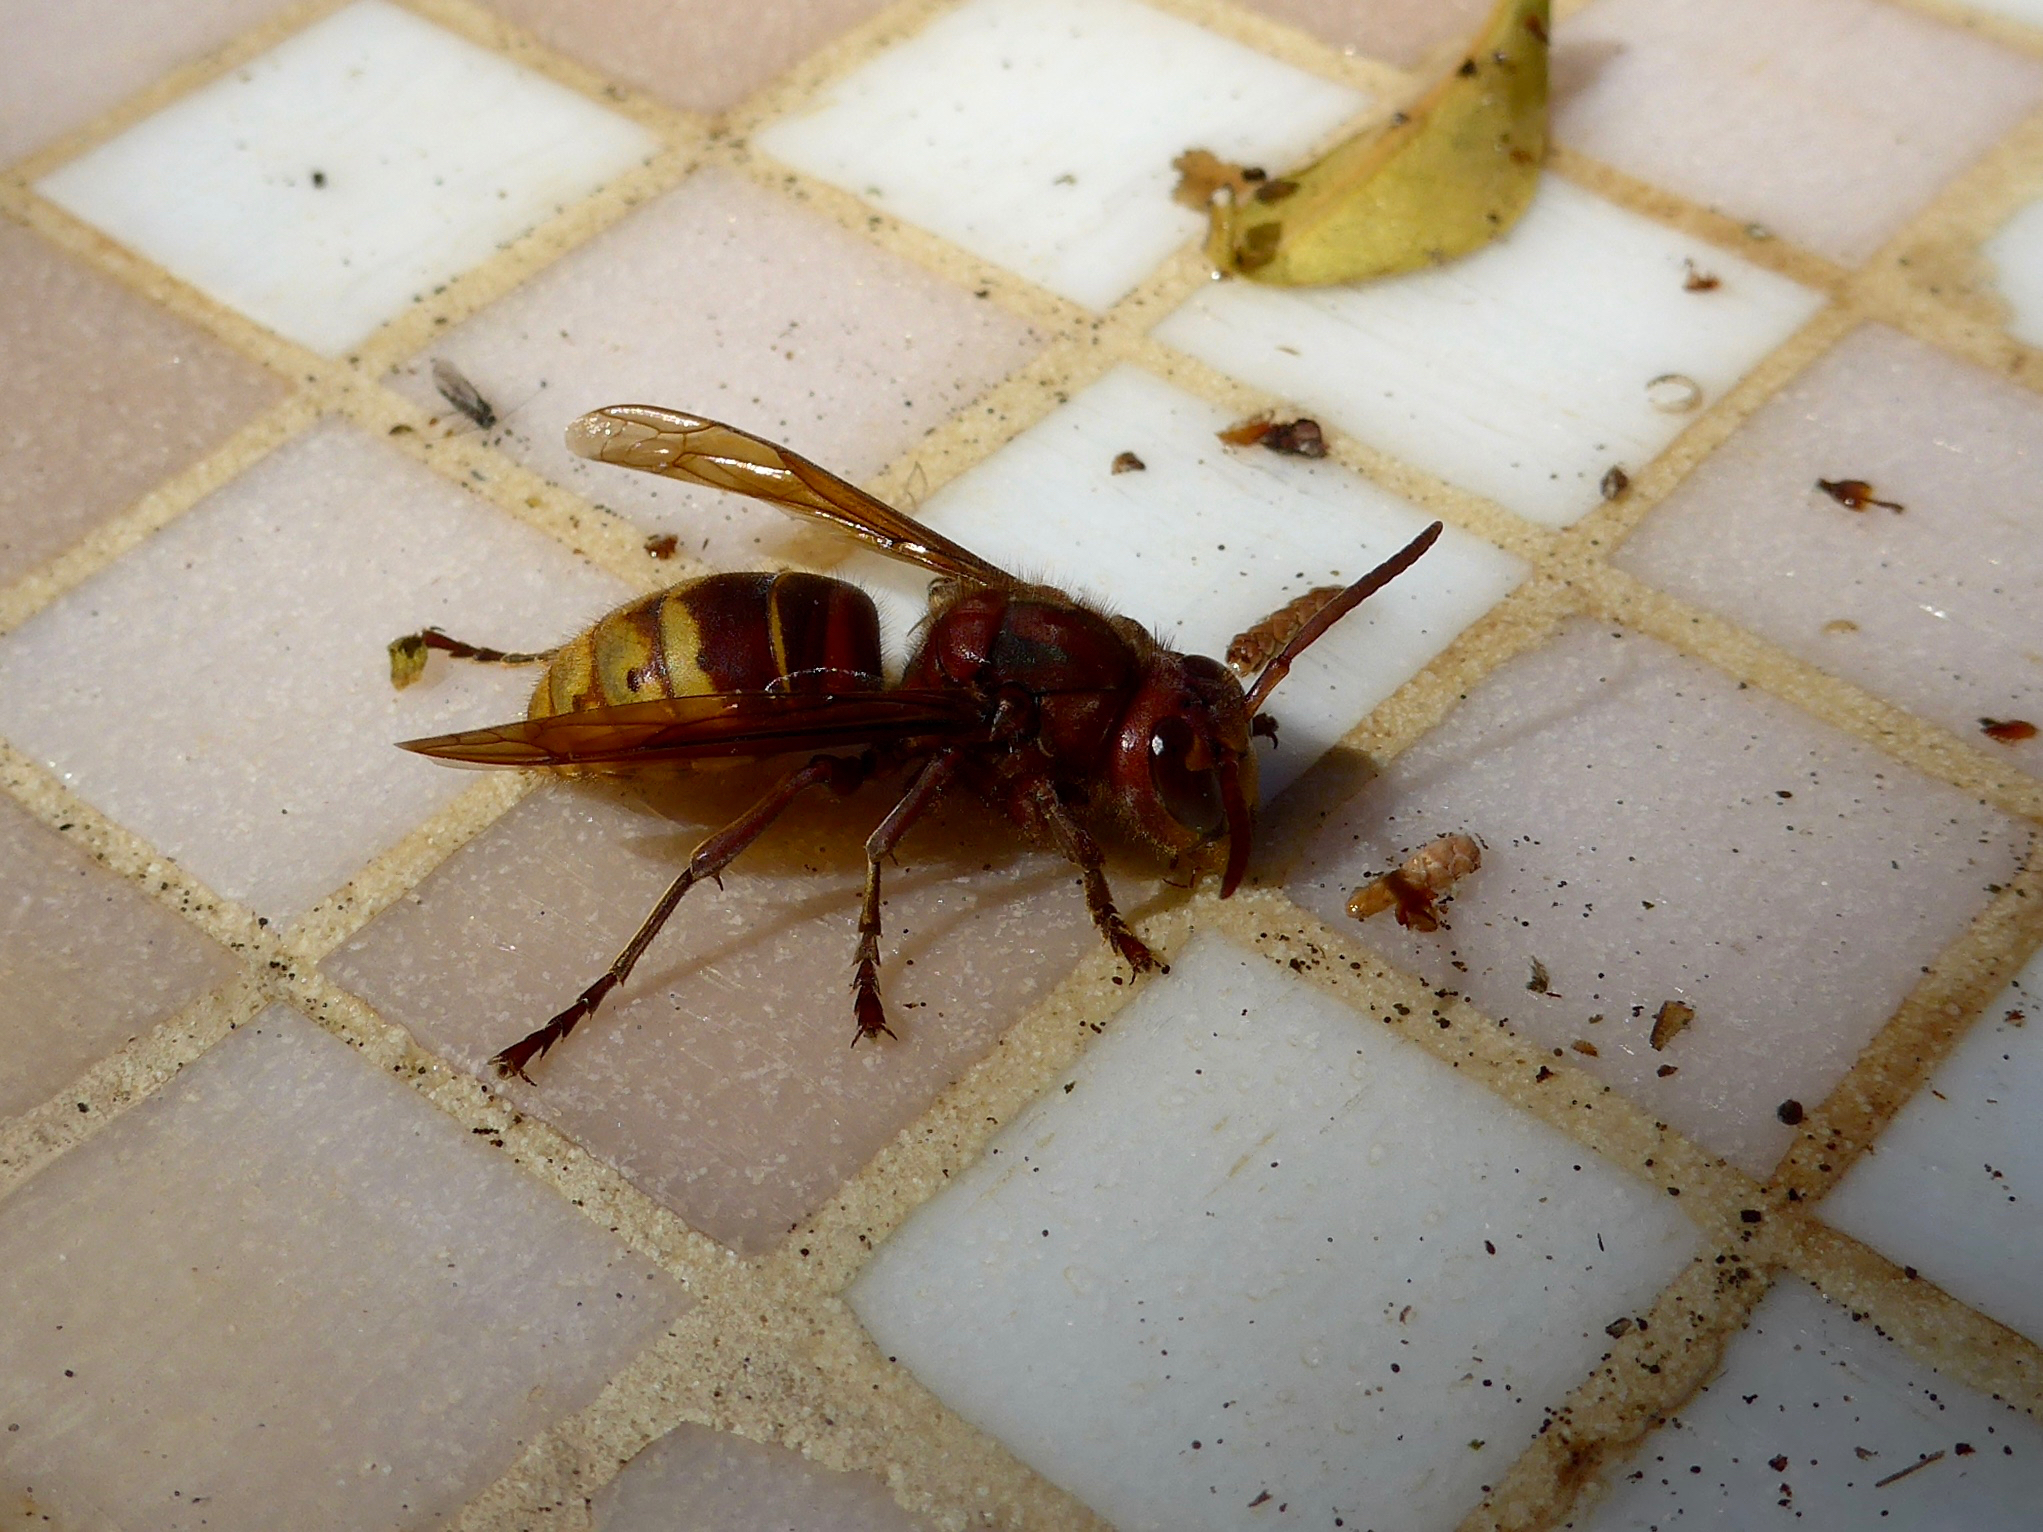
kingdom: Animalia
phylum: Arthropoda
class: Insecta
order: Hymenoptera
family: Vespidae
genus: Vespa
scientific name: Vespa crabro
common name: Hornet
